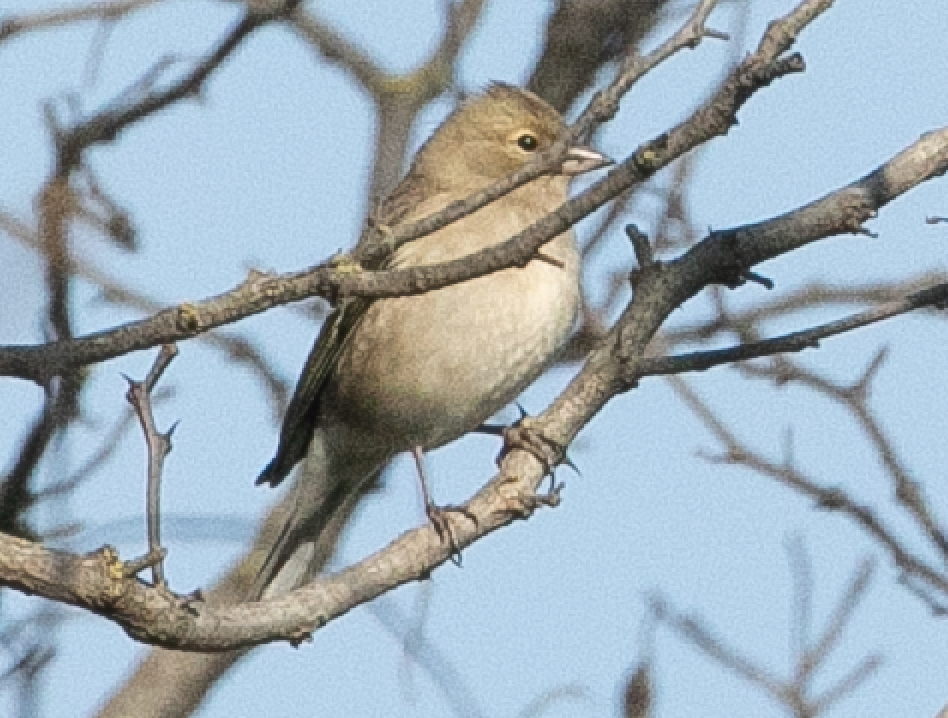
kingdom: Animalia
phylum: Chordata
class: Aves
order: Passeriformes
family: Fringillidae
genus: Fringilla
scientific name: Fringilla coelebs
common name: Common chaffinch
